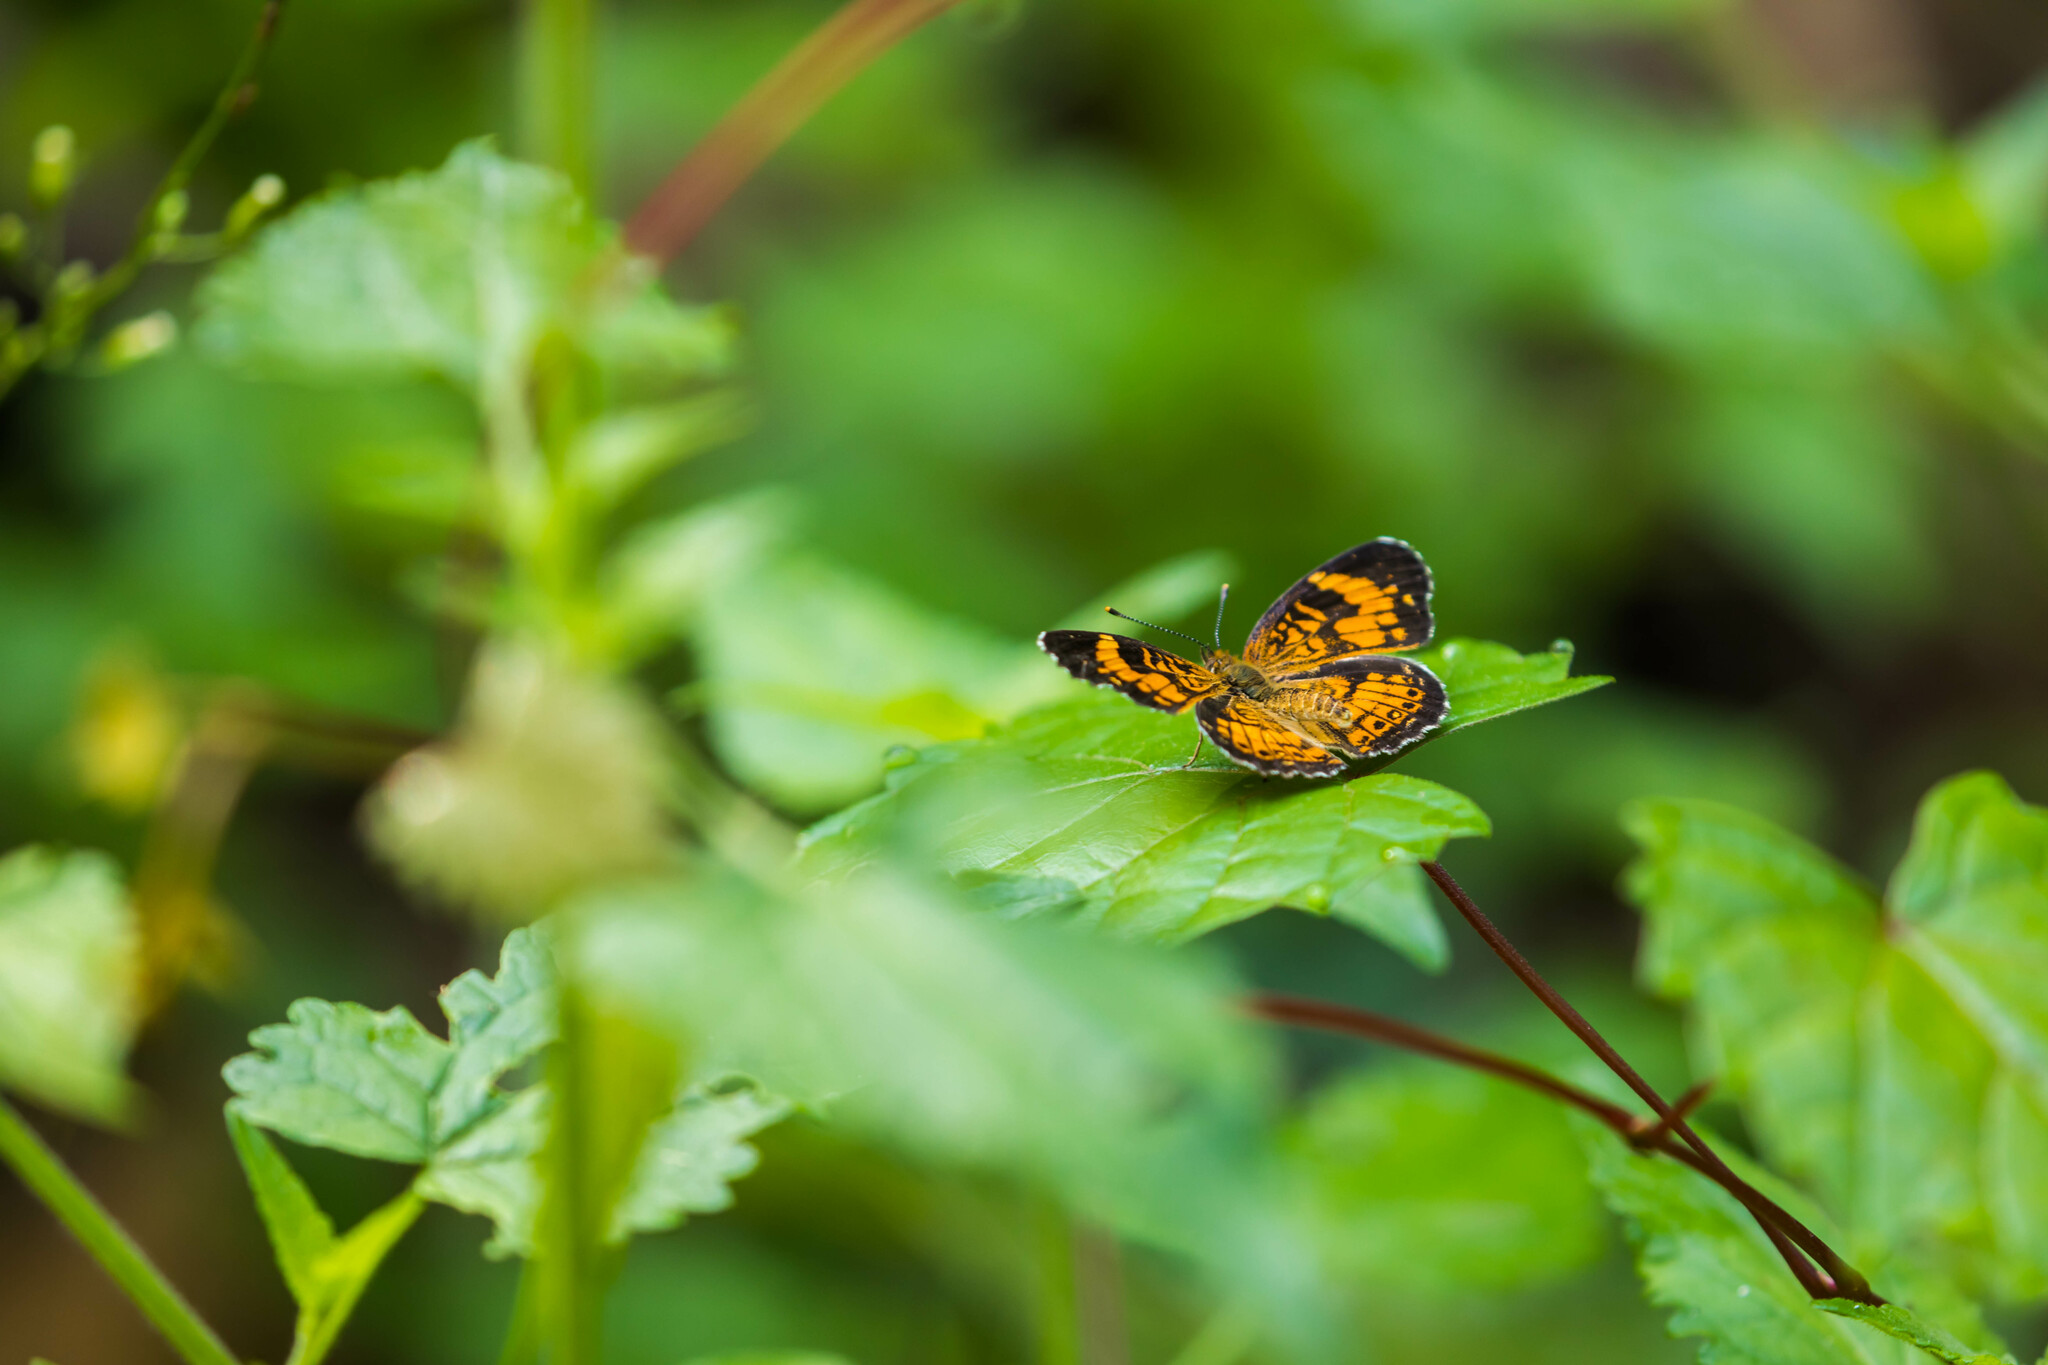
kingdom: Animalia
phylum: Arthropoda
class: Insecta
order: Lepidoptera
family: Nymphalidae
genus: Phyciodes
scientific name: Phyciodes tharos
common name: Pearl crescent
